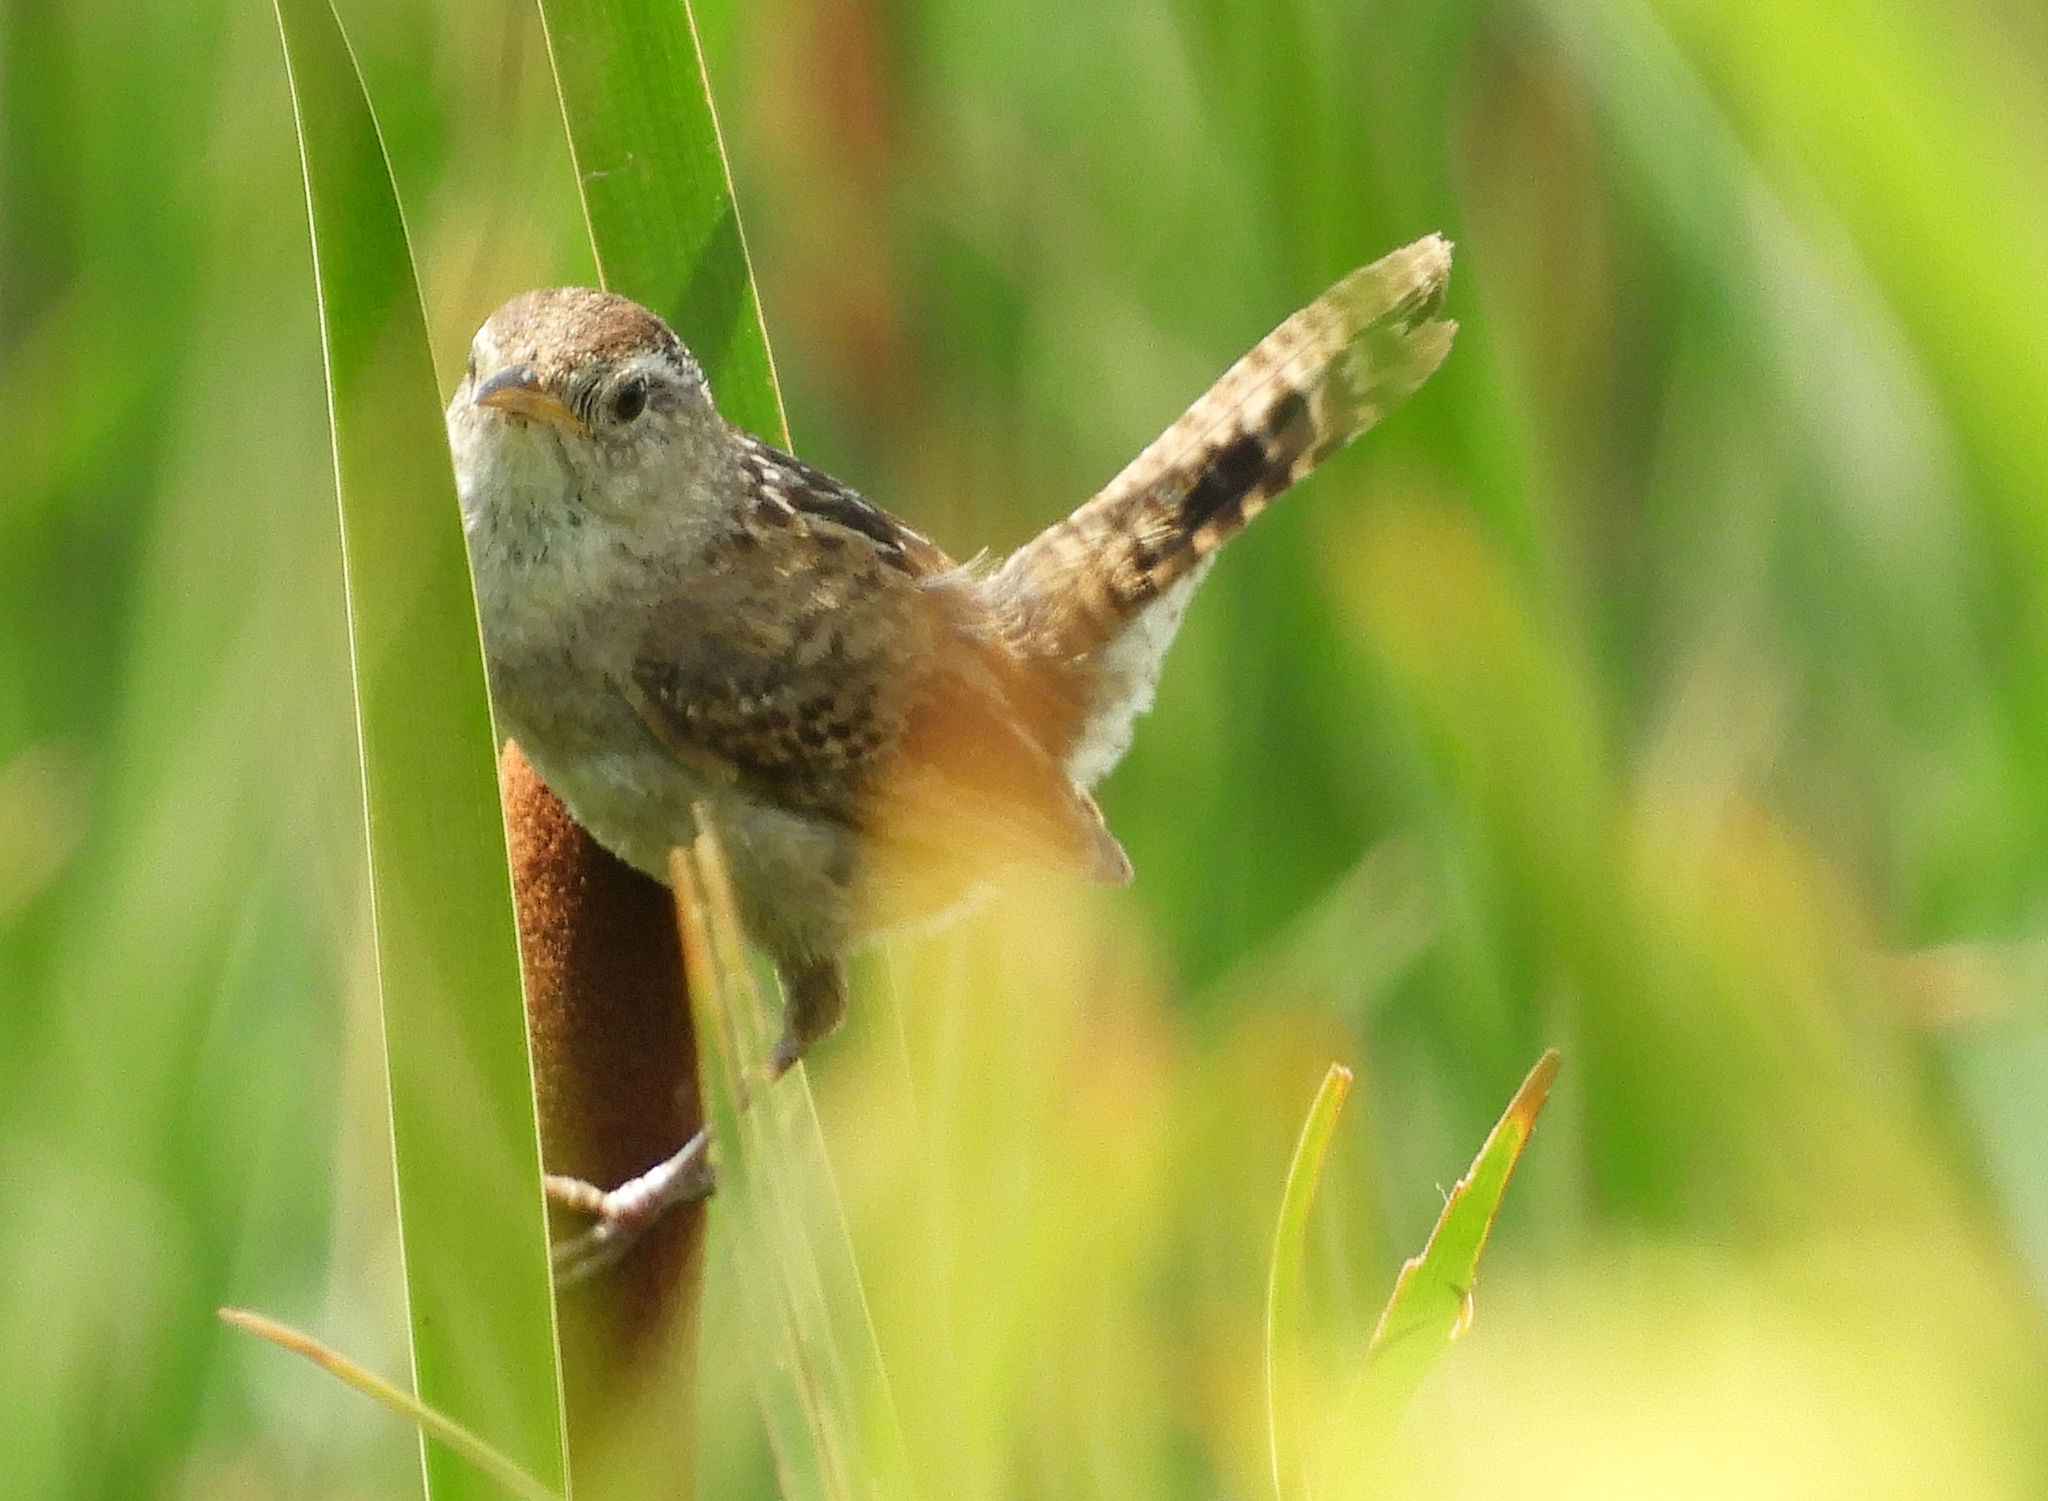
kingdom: Animalia
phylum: Chordata
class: Aves
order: Passeriformes
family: Troglodytidae
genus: Cistothorus
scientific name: Cistothorus palustris
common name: Marsh wren
